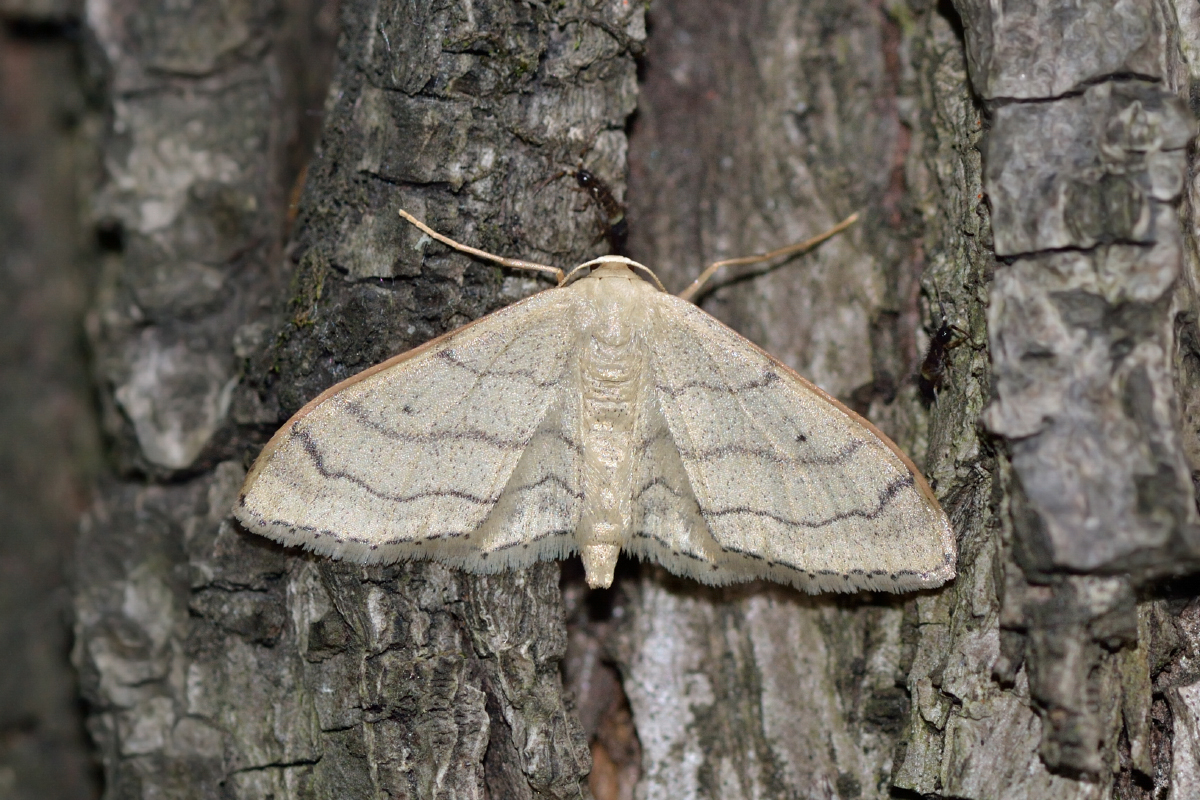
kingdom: Animalia
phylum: Arthropoda
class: Insecta
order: Lepidoptera
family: Geometridae
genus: Idaea
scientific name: Idaea aversata
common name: Riband wave
